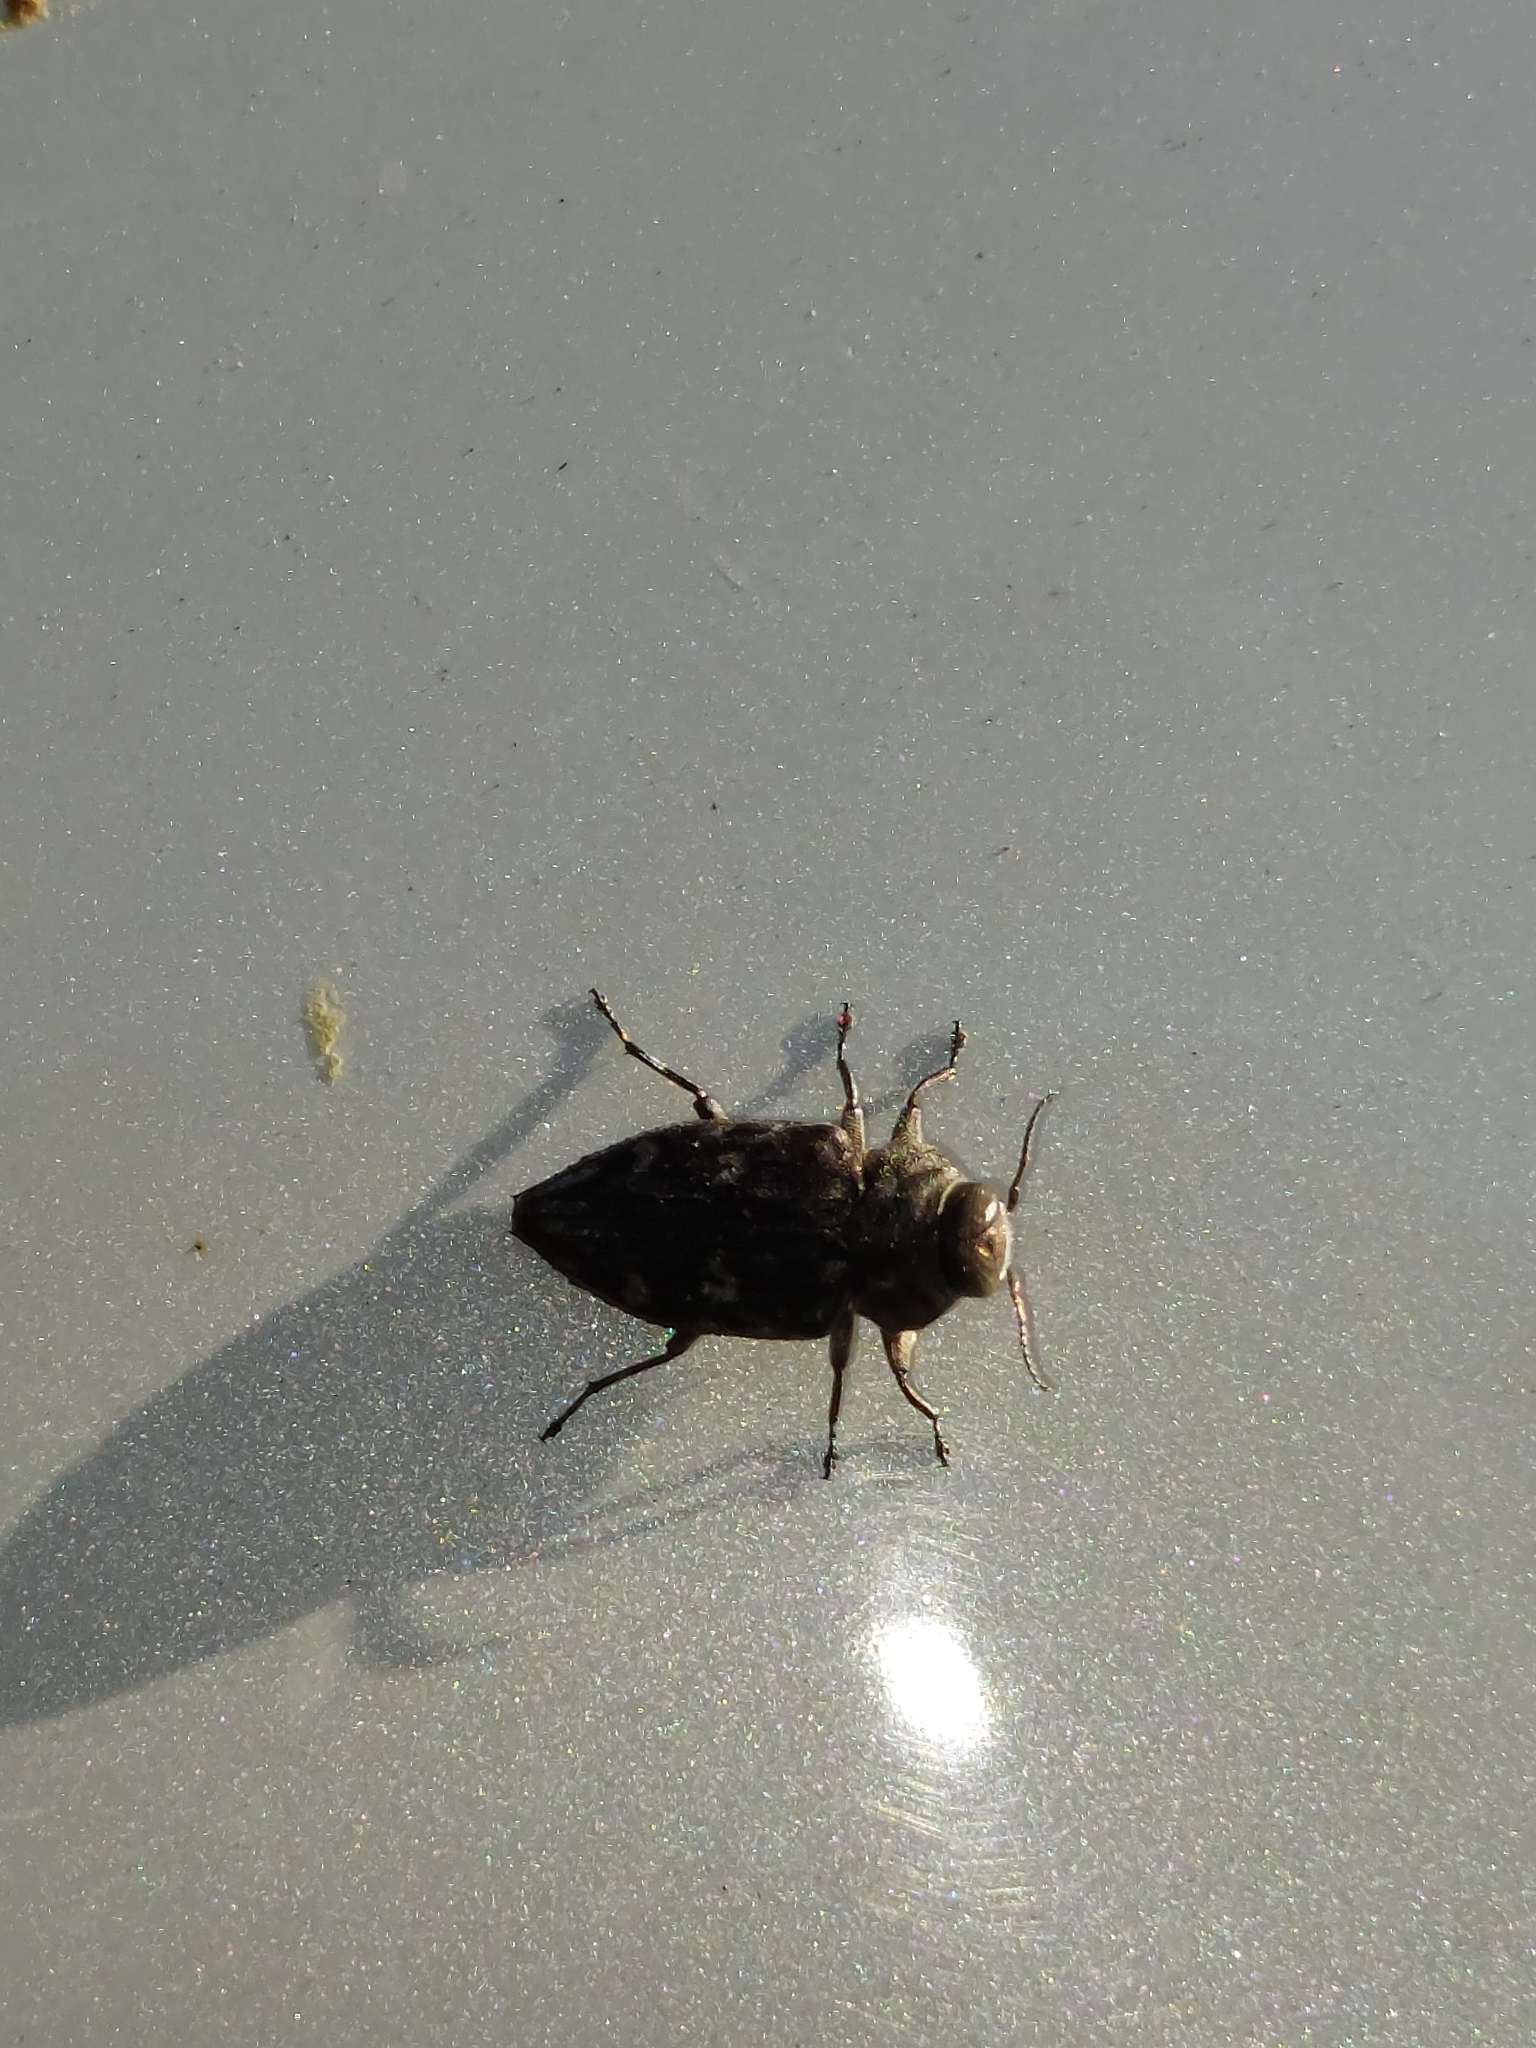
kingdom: Animalia
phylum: Arthropoda
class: Insecta
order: Coleoptera
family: Buprestidae
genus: Chrysobothris
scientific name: Chrysobothris tranquebarica
